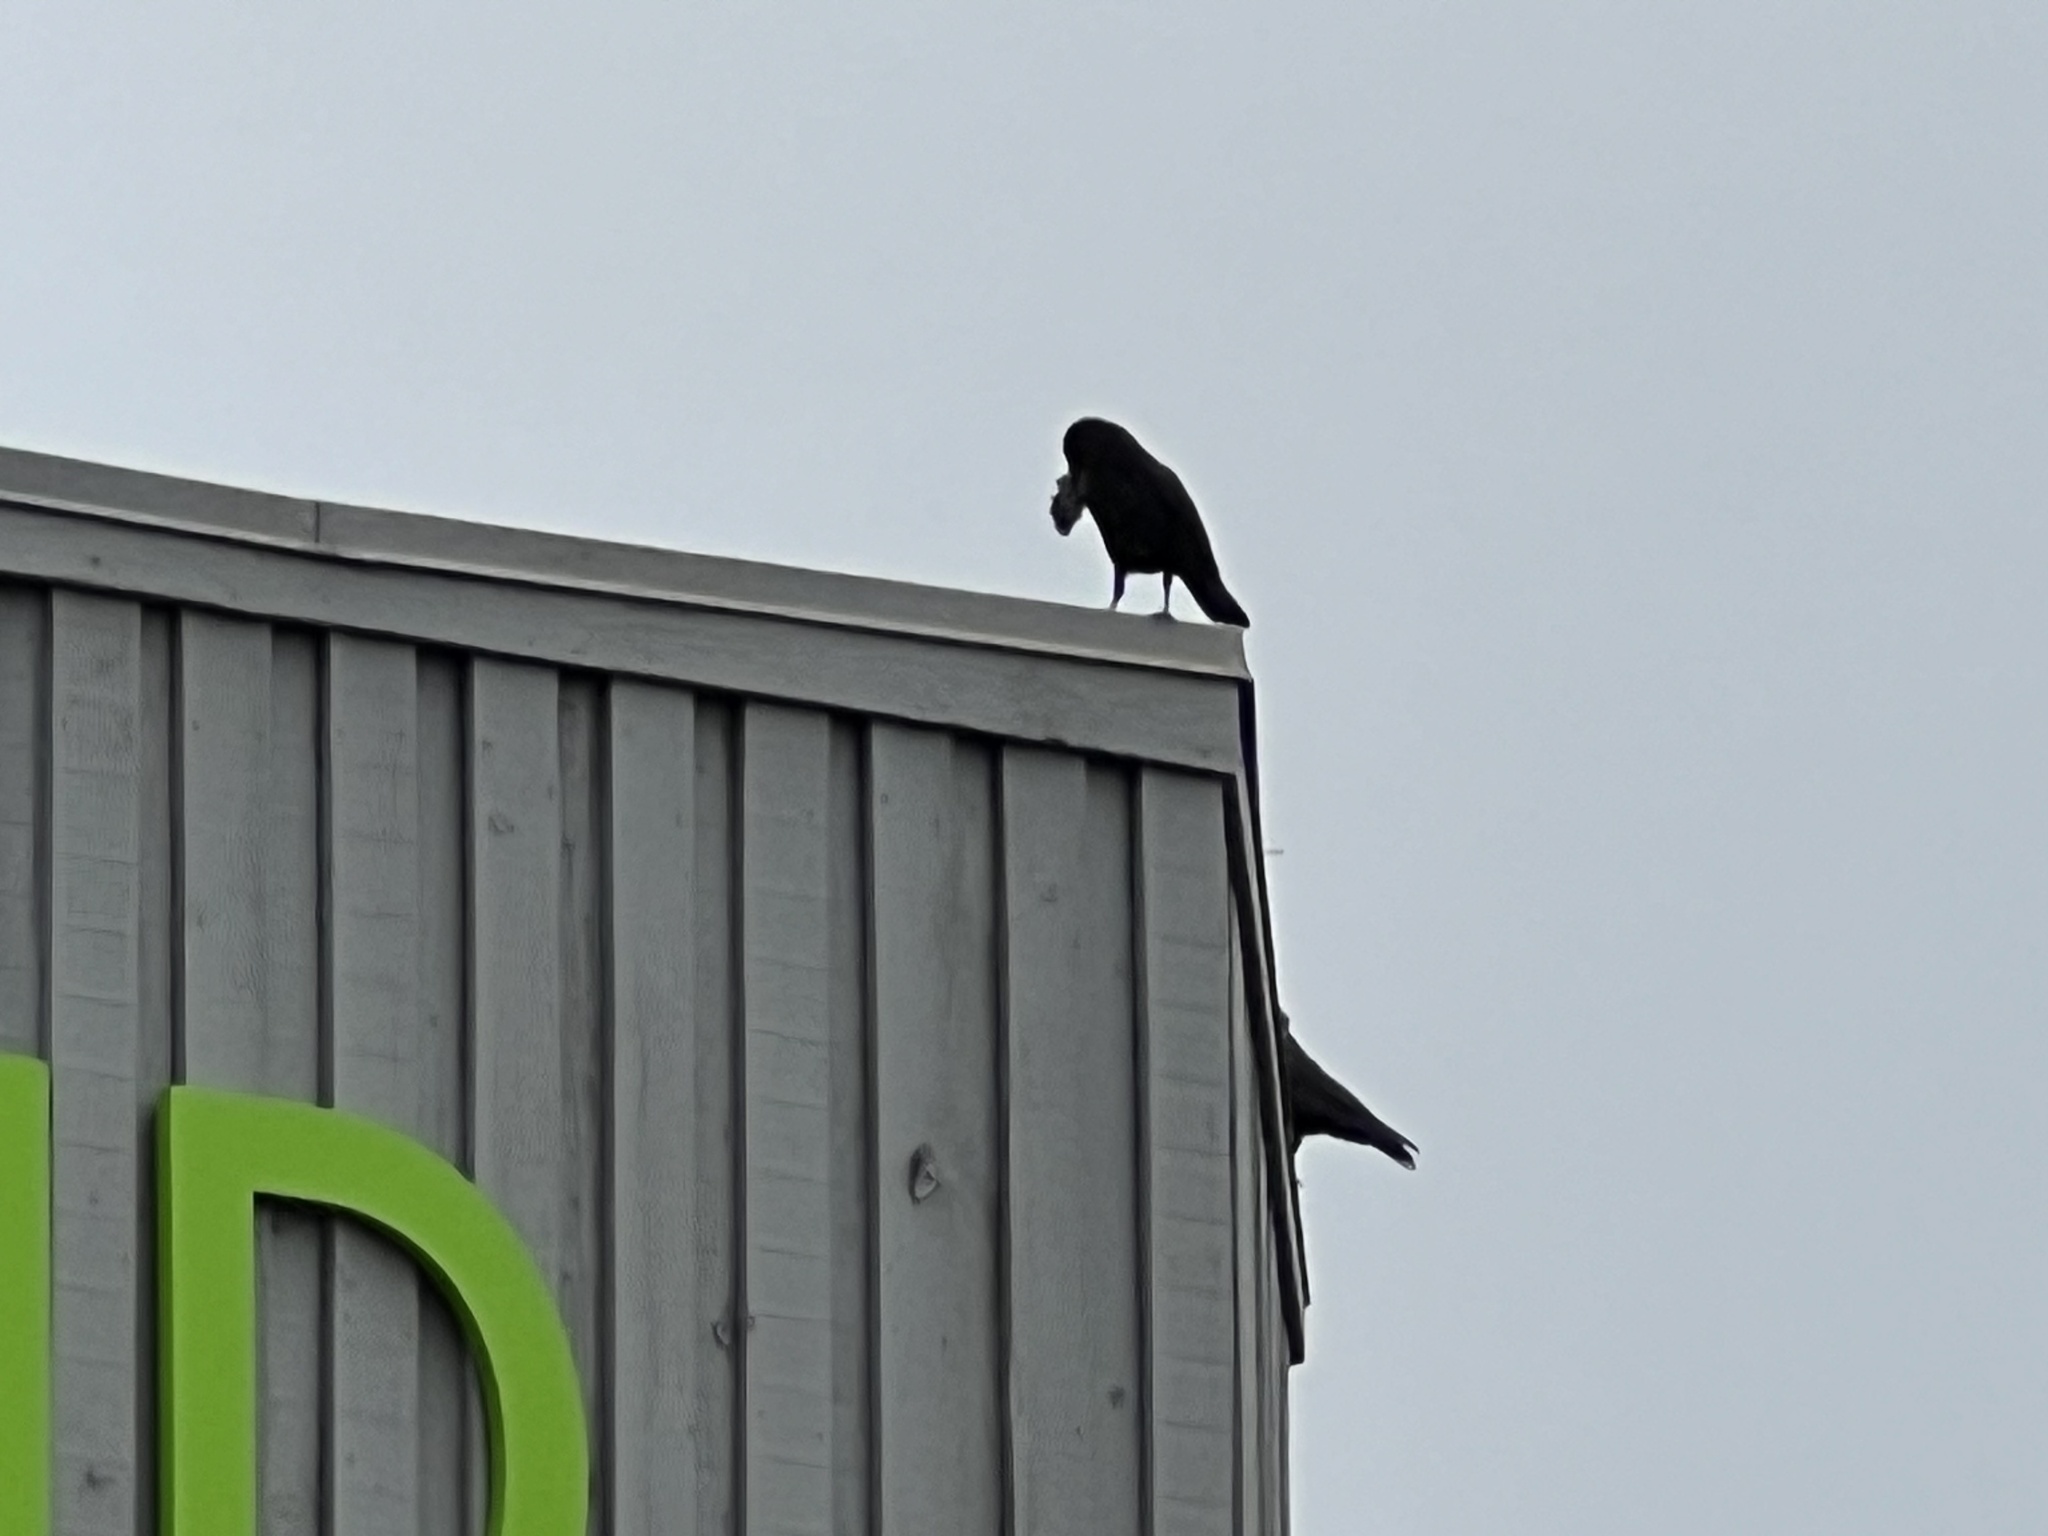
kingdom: Animalia
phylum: Chordata
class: Aves
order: Passeriformes
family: Corvidae
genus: Corvus
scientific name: Corvus brachyrhynchos
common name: American crow
